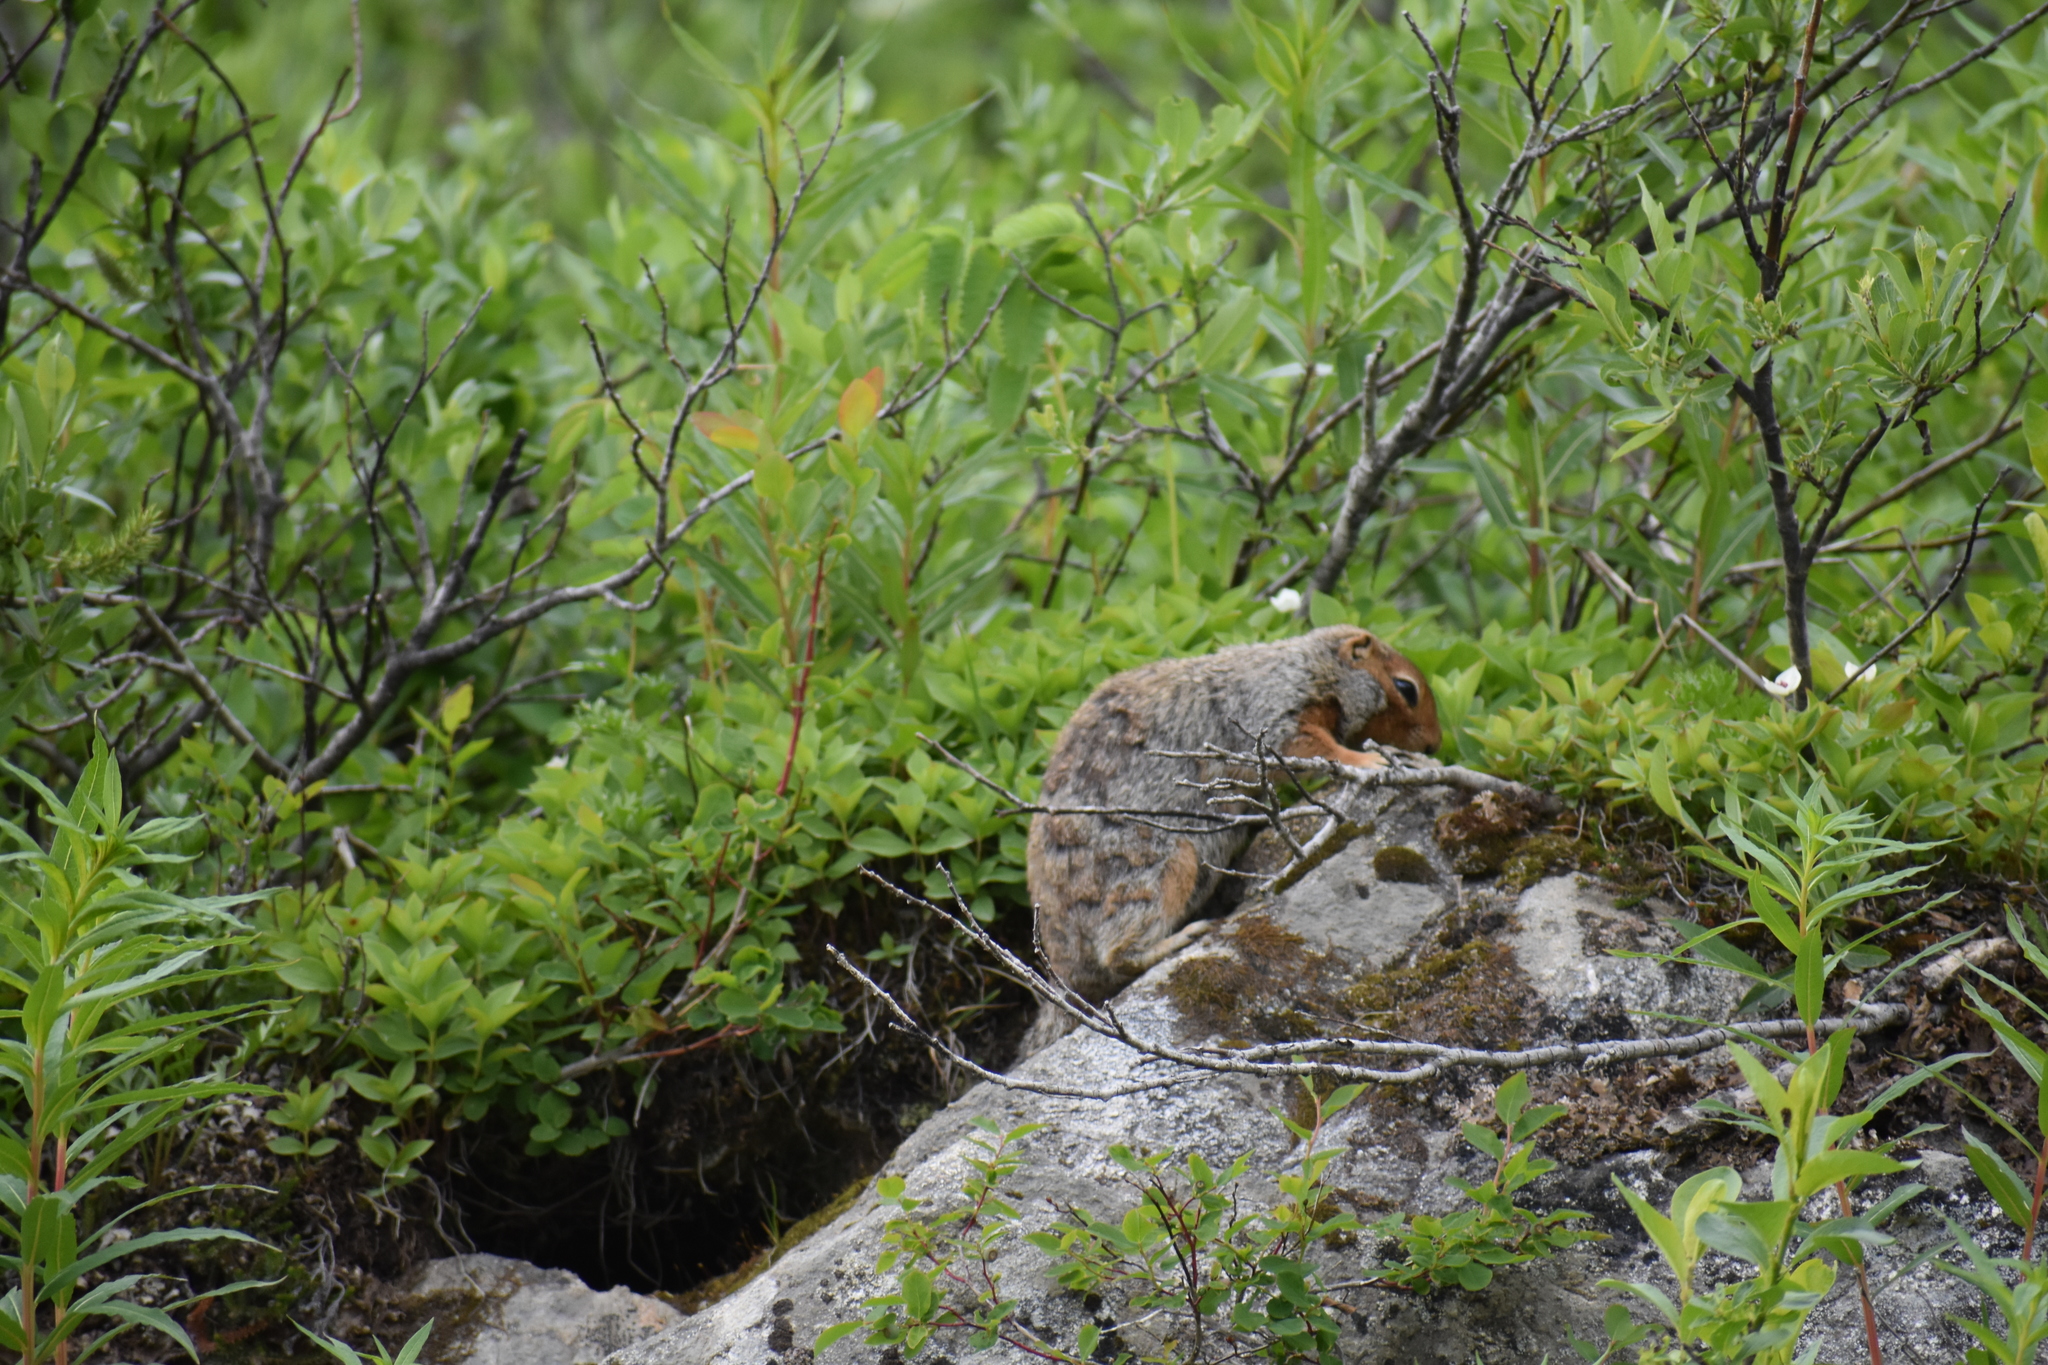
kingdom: Animalia
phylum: Chordata
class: Mammalia
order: Rodentia
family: Sciuridae
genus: Urocitellus
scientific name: Urocitellus parryii
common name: Arctic ground squirrel
